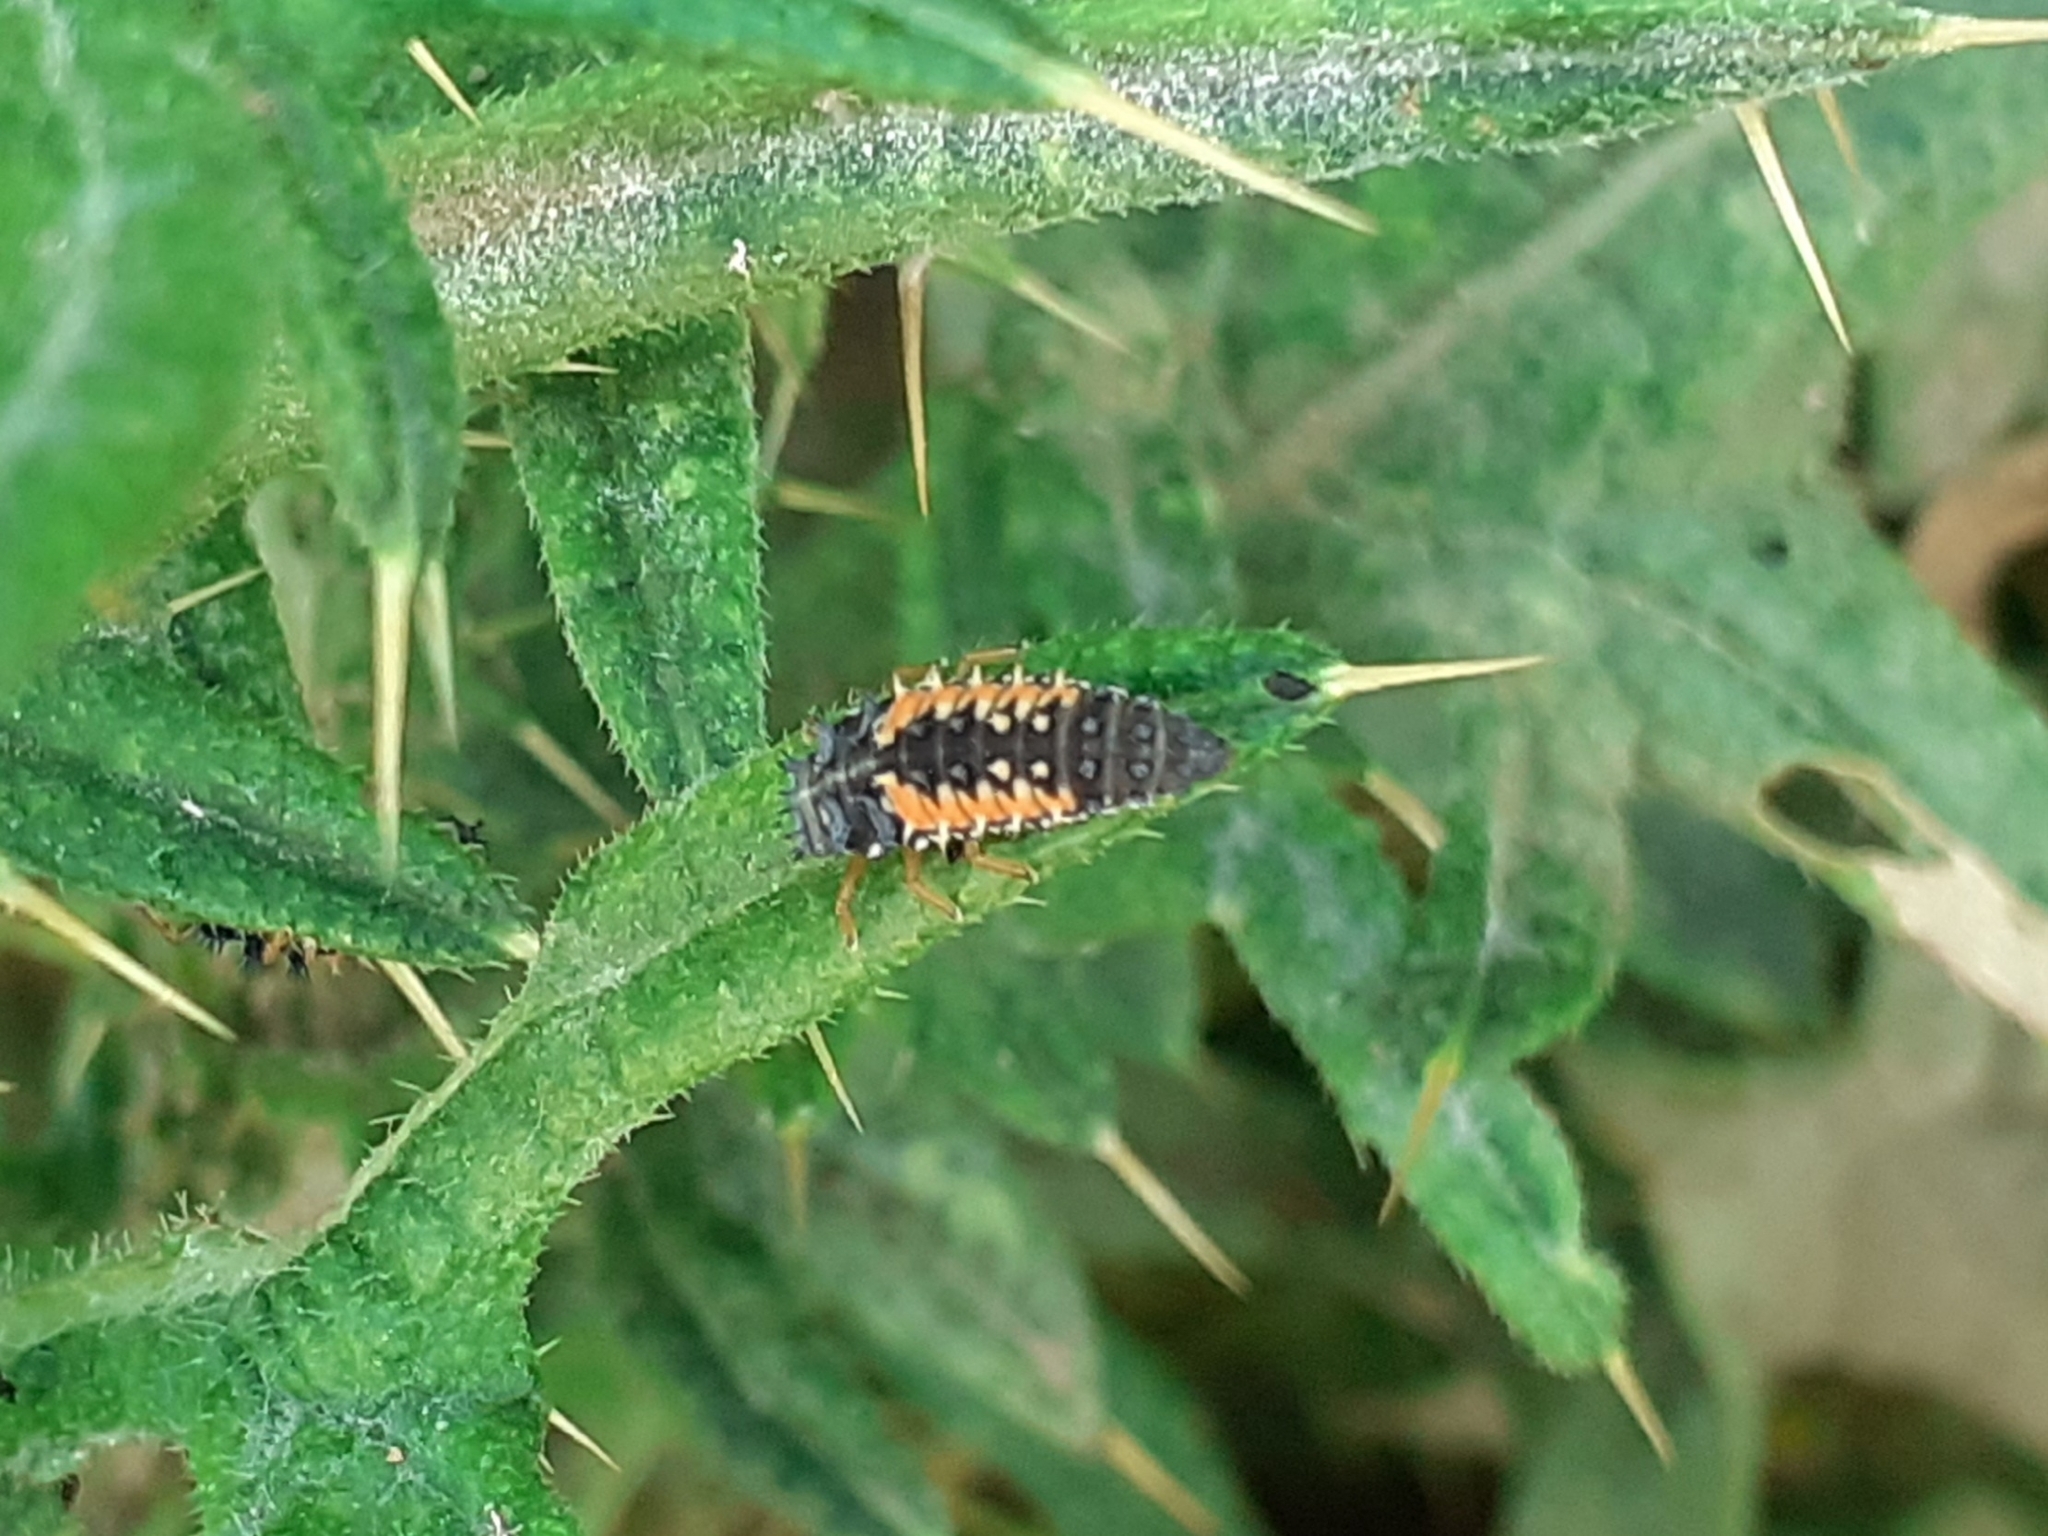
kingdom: Animalia
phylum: Arthropoda
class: Insecta
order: Coleoptera
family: Coccinellidae
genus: Harmonia
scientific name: Harmonia axyridis
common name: Harlequin ladybird
